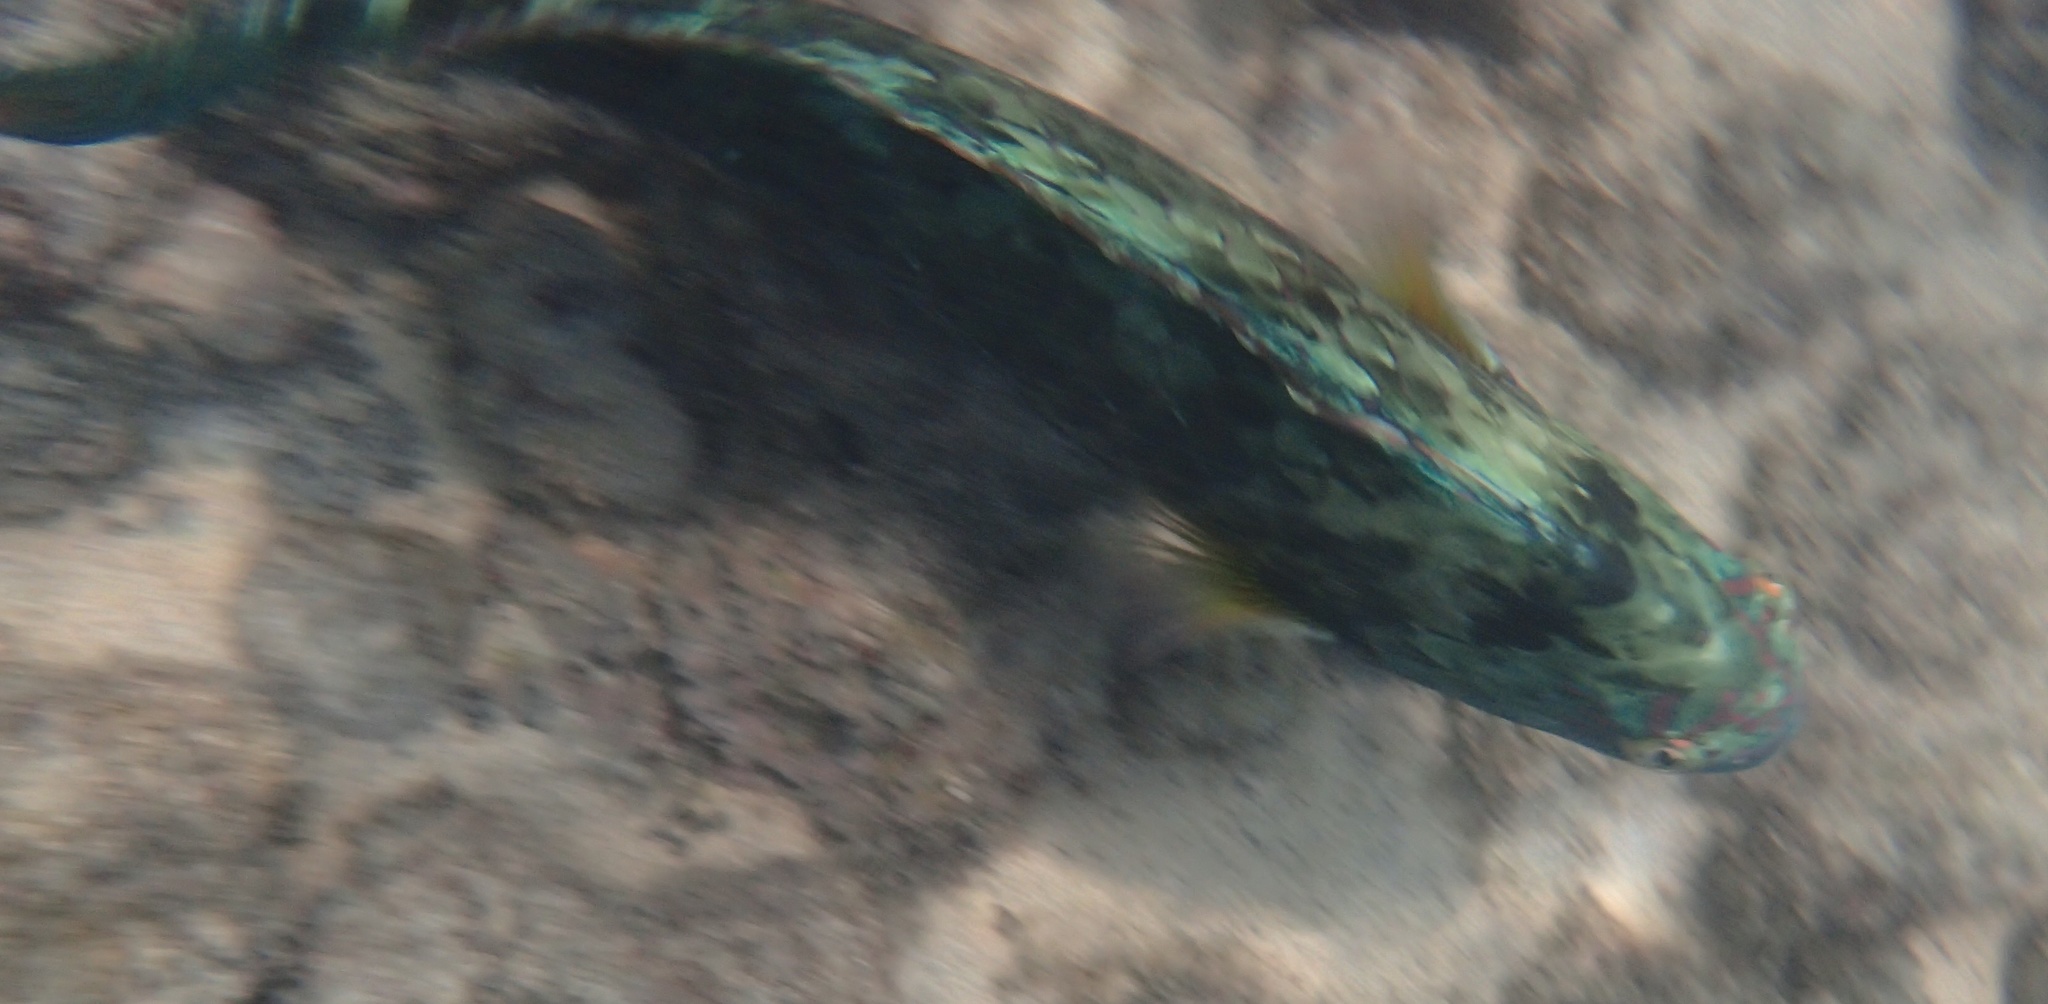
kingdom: Animalia
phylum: Chordata
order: Perciformes
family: Scaridae
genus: Calotomus
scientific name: Calotomus carolinus
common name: Bucktooth
